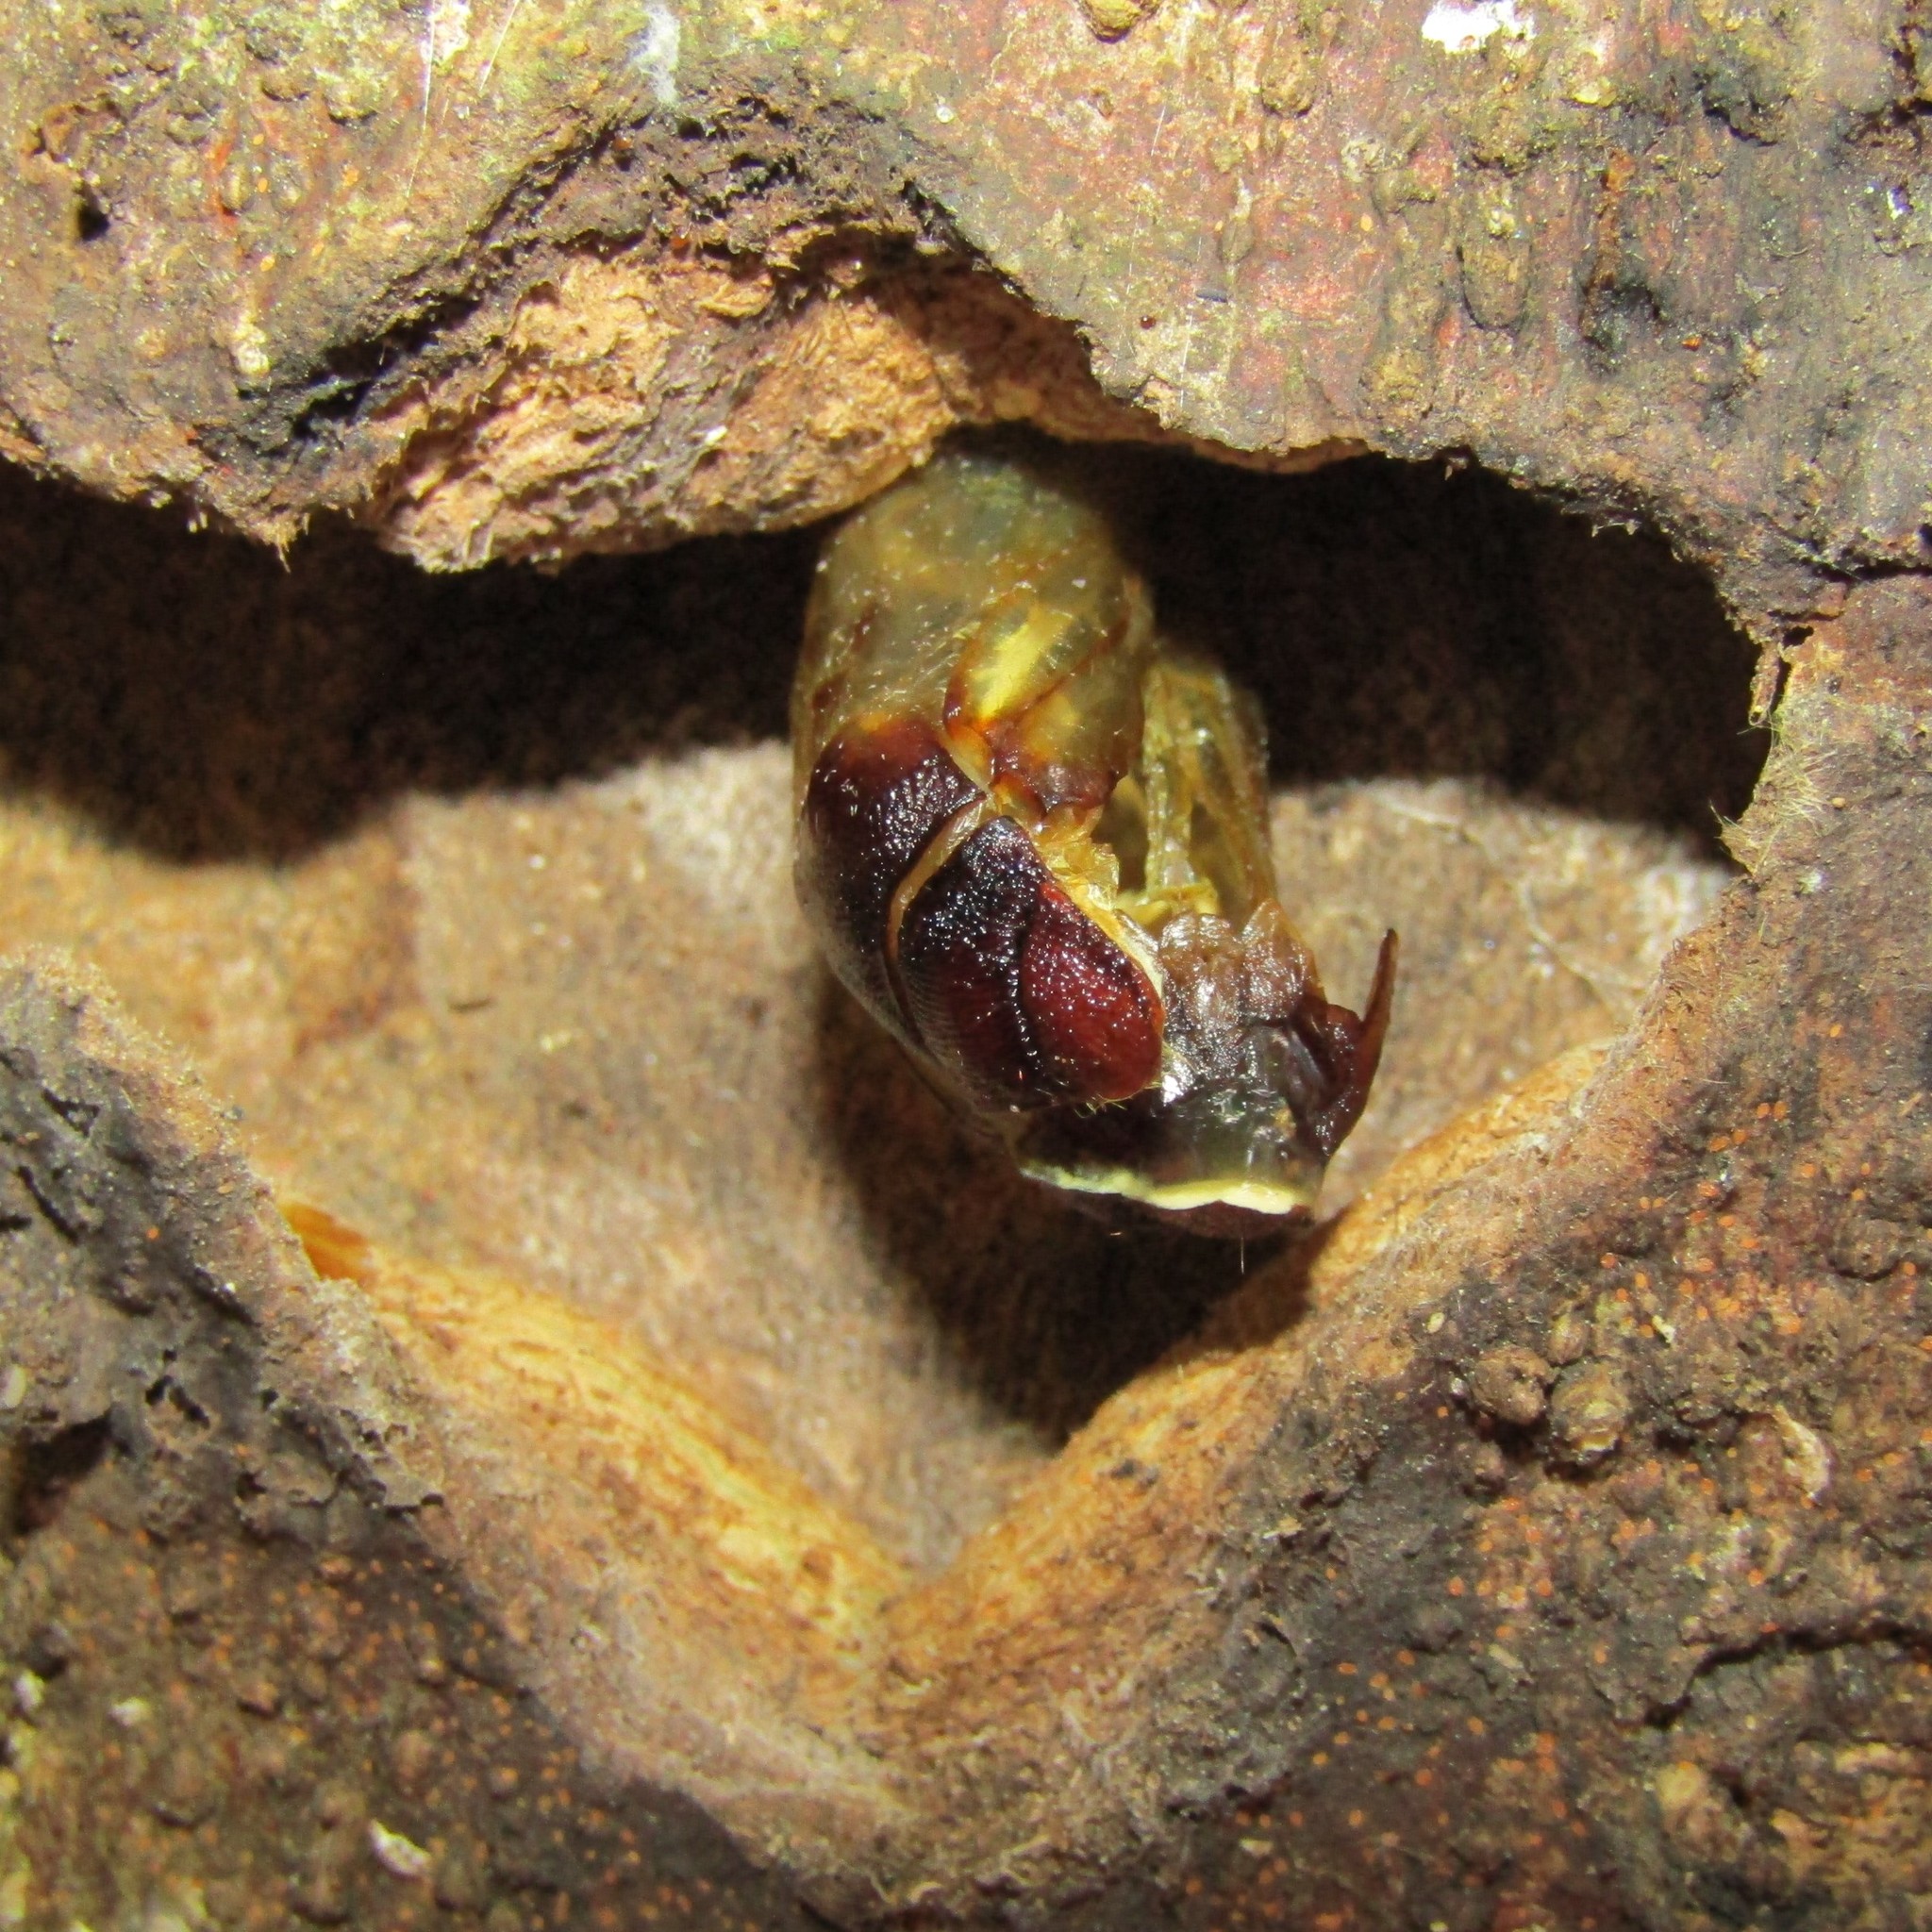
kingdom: Animalia
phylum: Arthropoda
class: Insecta
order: Lepidoptera
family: Hepialidae
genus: Aenetus
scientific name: Aenetus virescens
